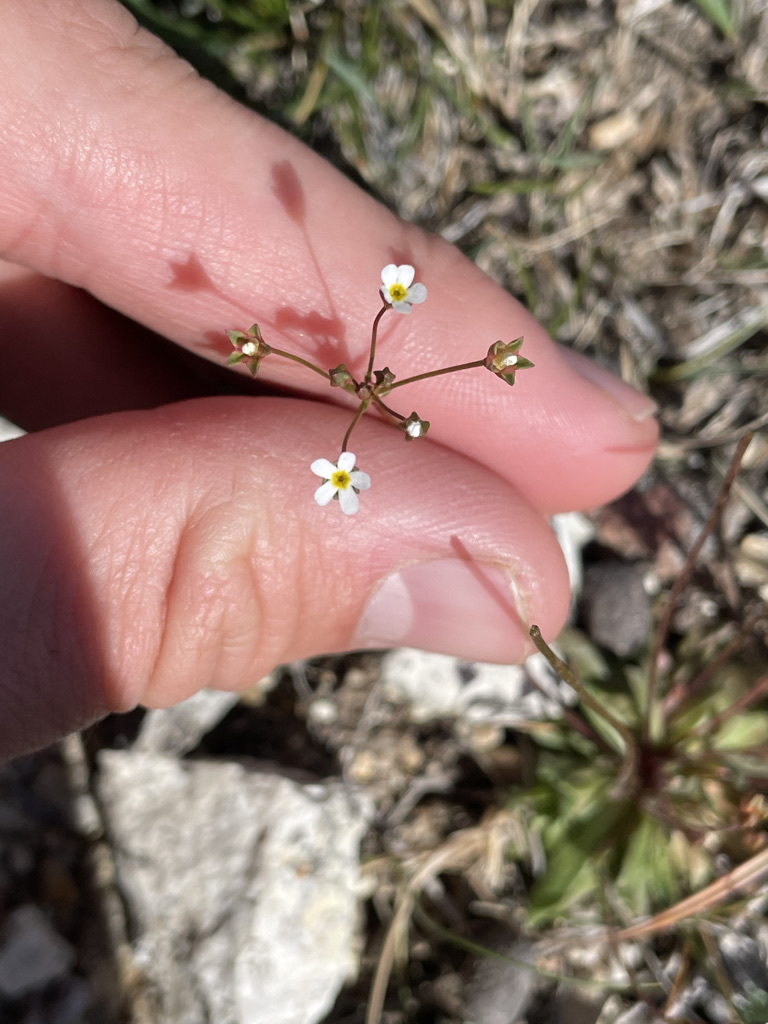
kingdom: Plantae
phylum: Tracheophyta
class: Magnoliopsida
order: Ericales
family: Primulaceae
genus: Androsace
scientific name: Androsace septentrionalis
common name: Hairy northern fairy-candelabra
